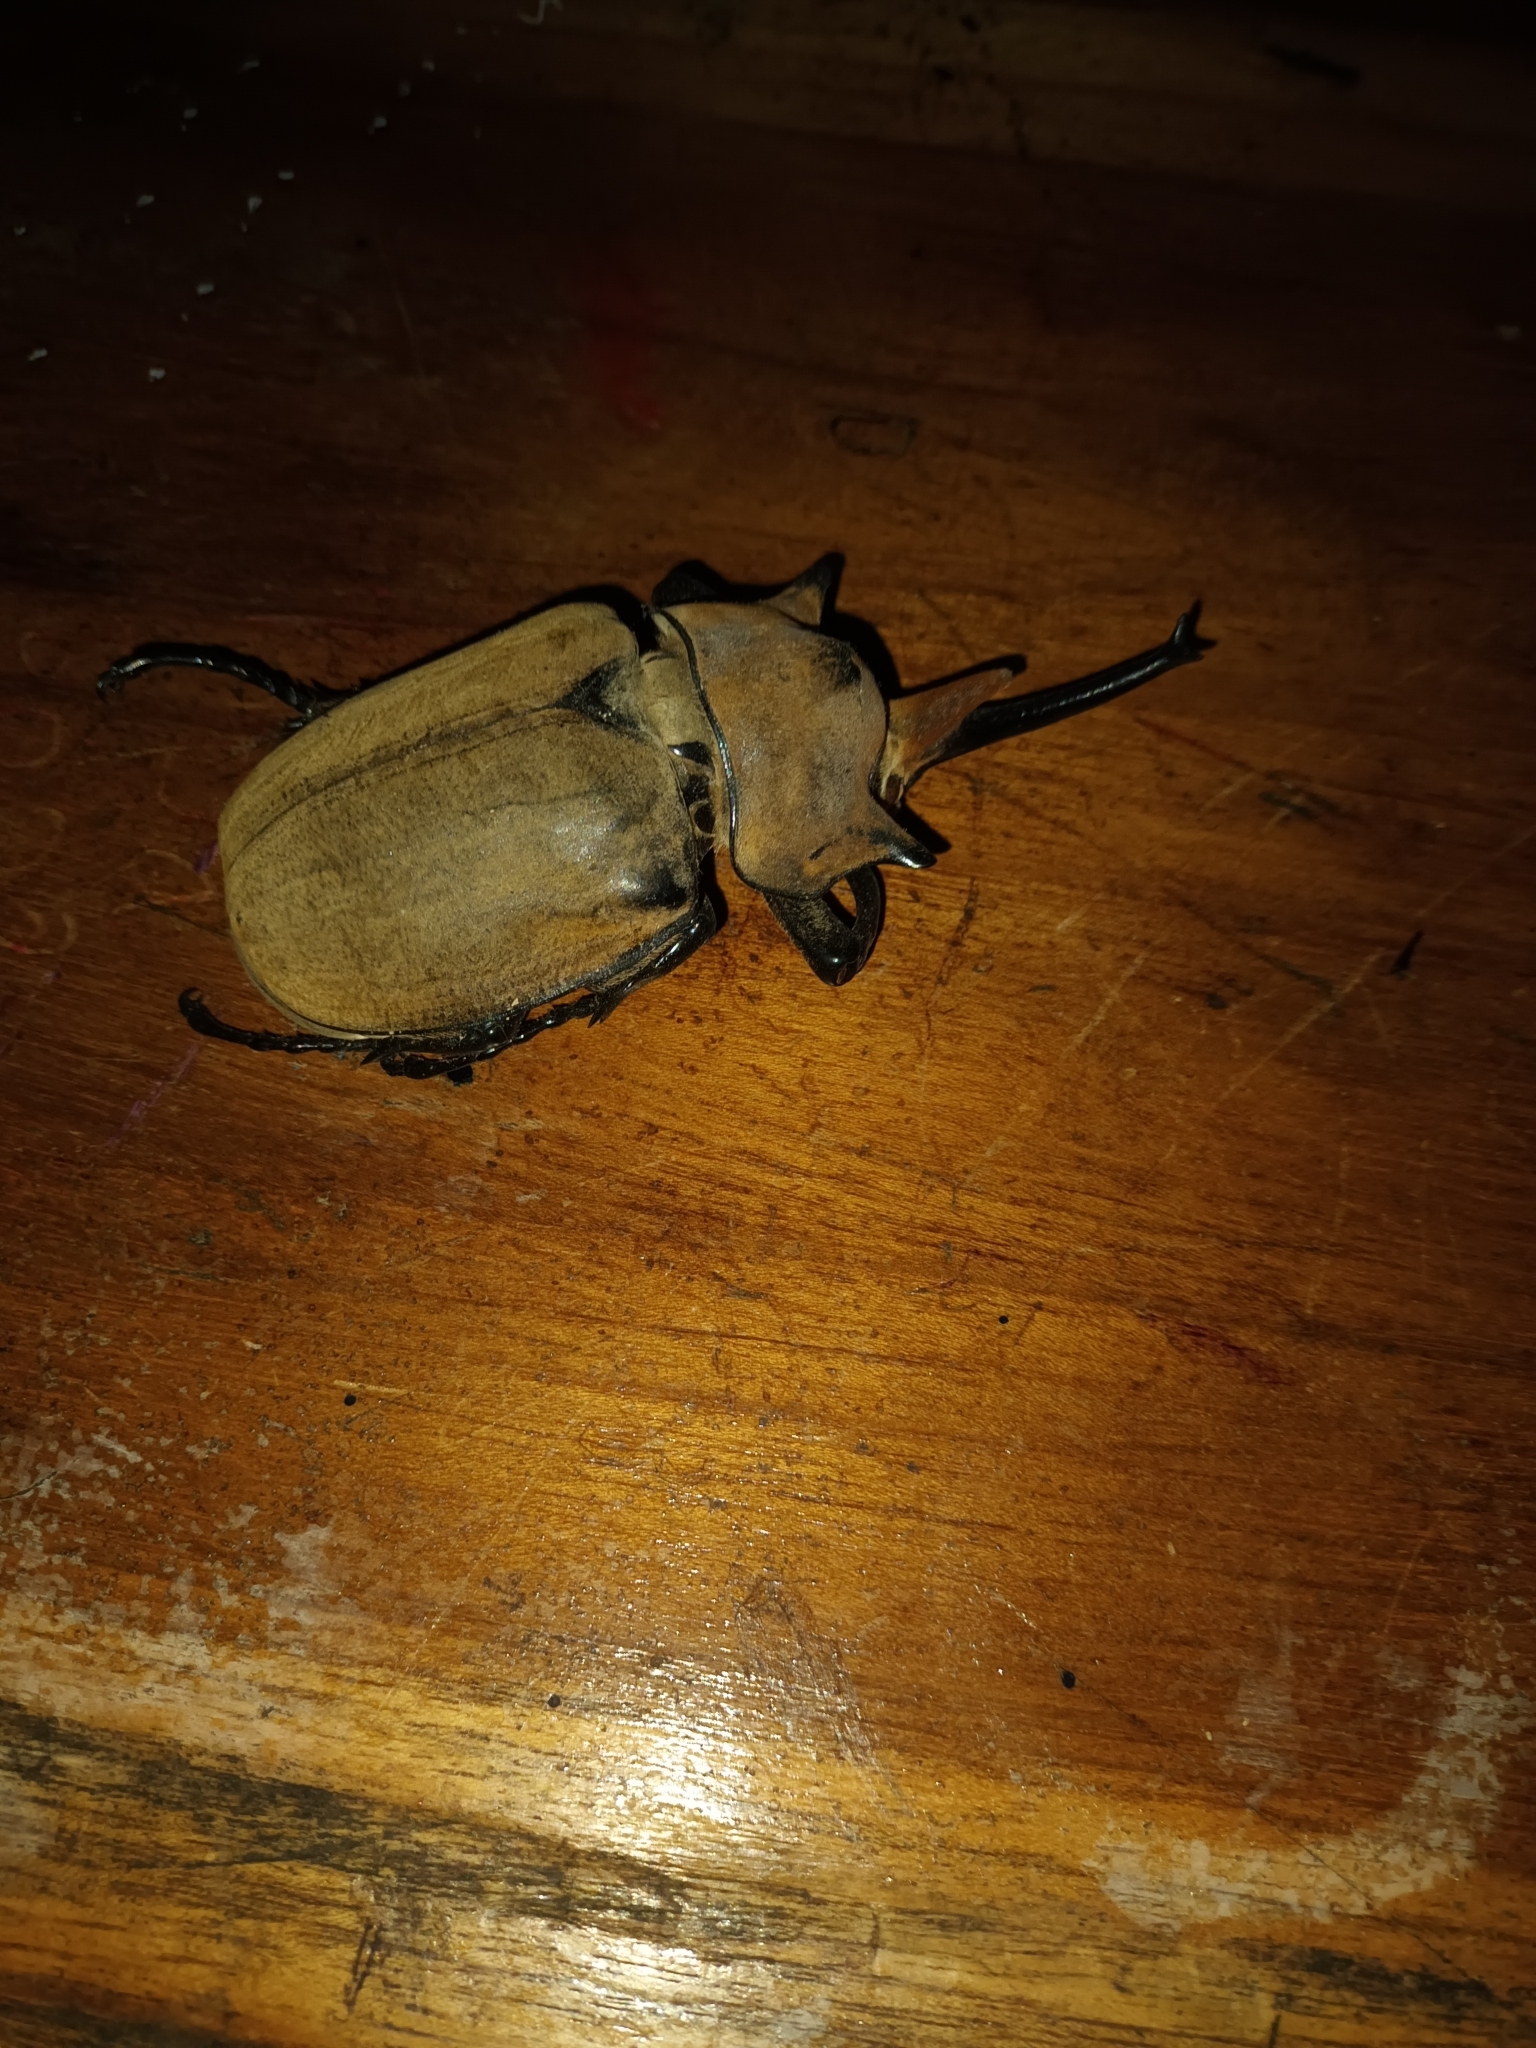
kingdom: Animalia
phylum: Arthropoda
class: Insecta
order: Coleoptera
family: Scarabaeidae
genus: Megasoma
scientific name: Megasoma elephas
